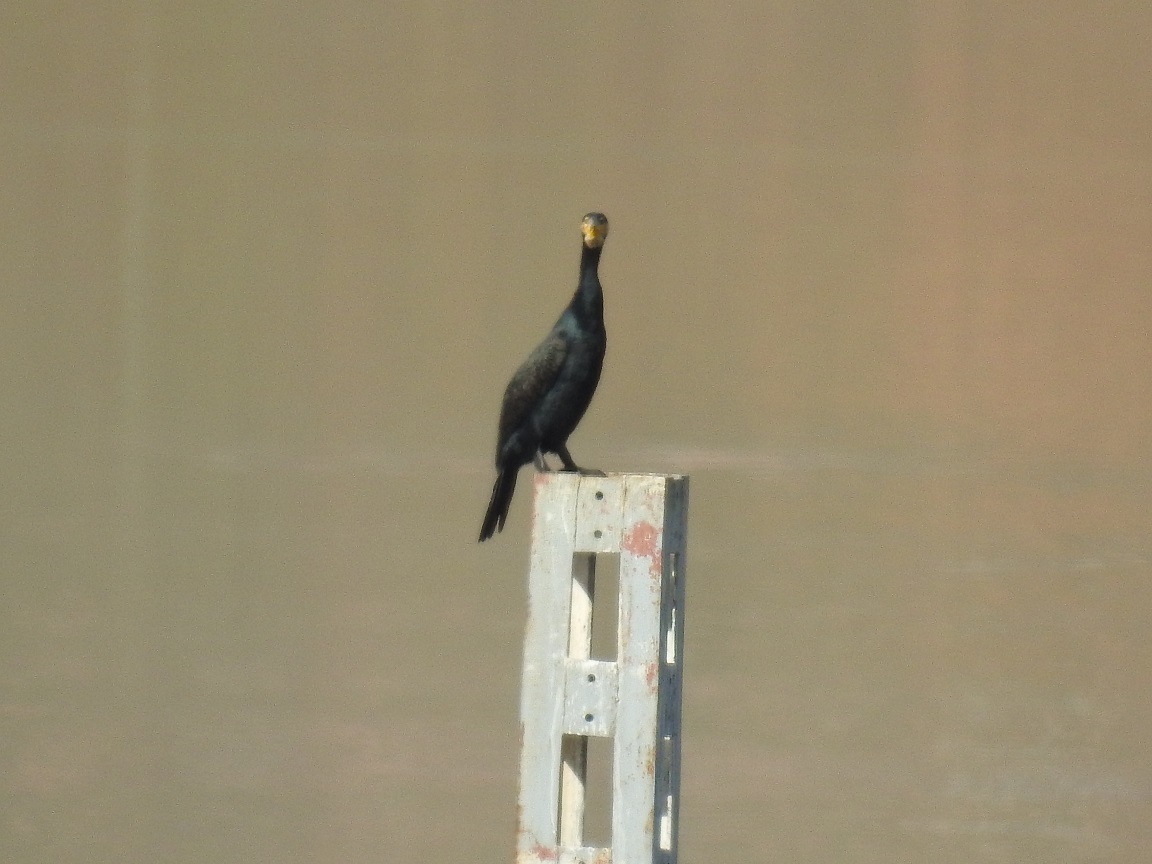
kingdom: Animalia
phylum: Chordata
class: Aves
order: Suliformes
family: Phalacrocoracidae
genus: Phalacrocorax
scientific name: Phalacrocorax carbo
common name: Great cormorant
